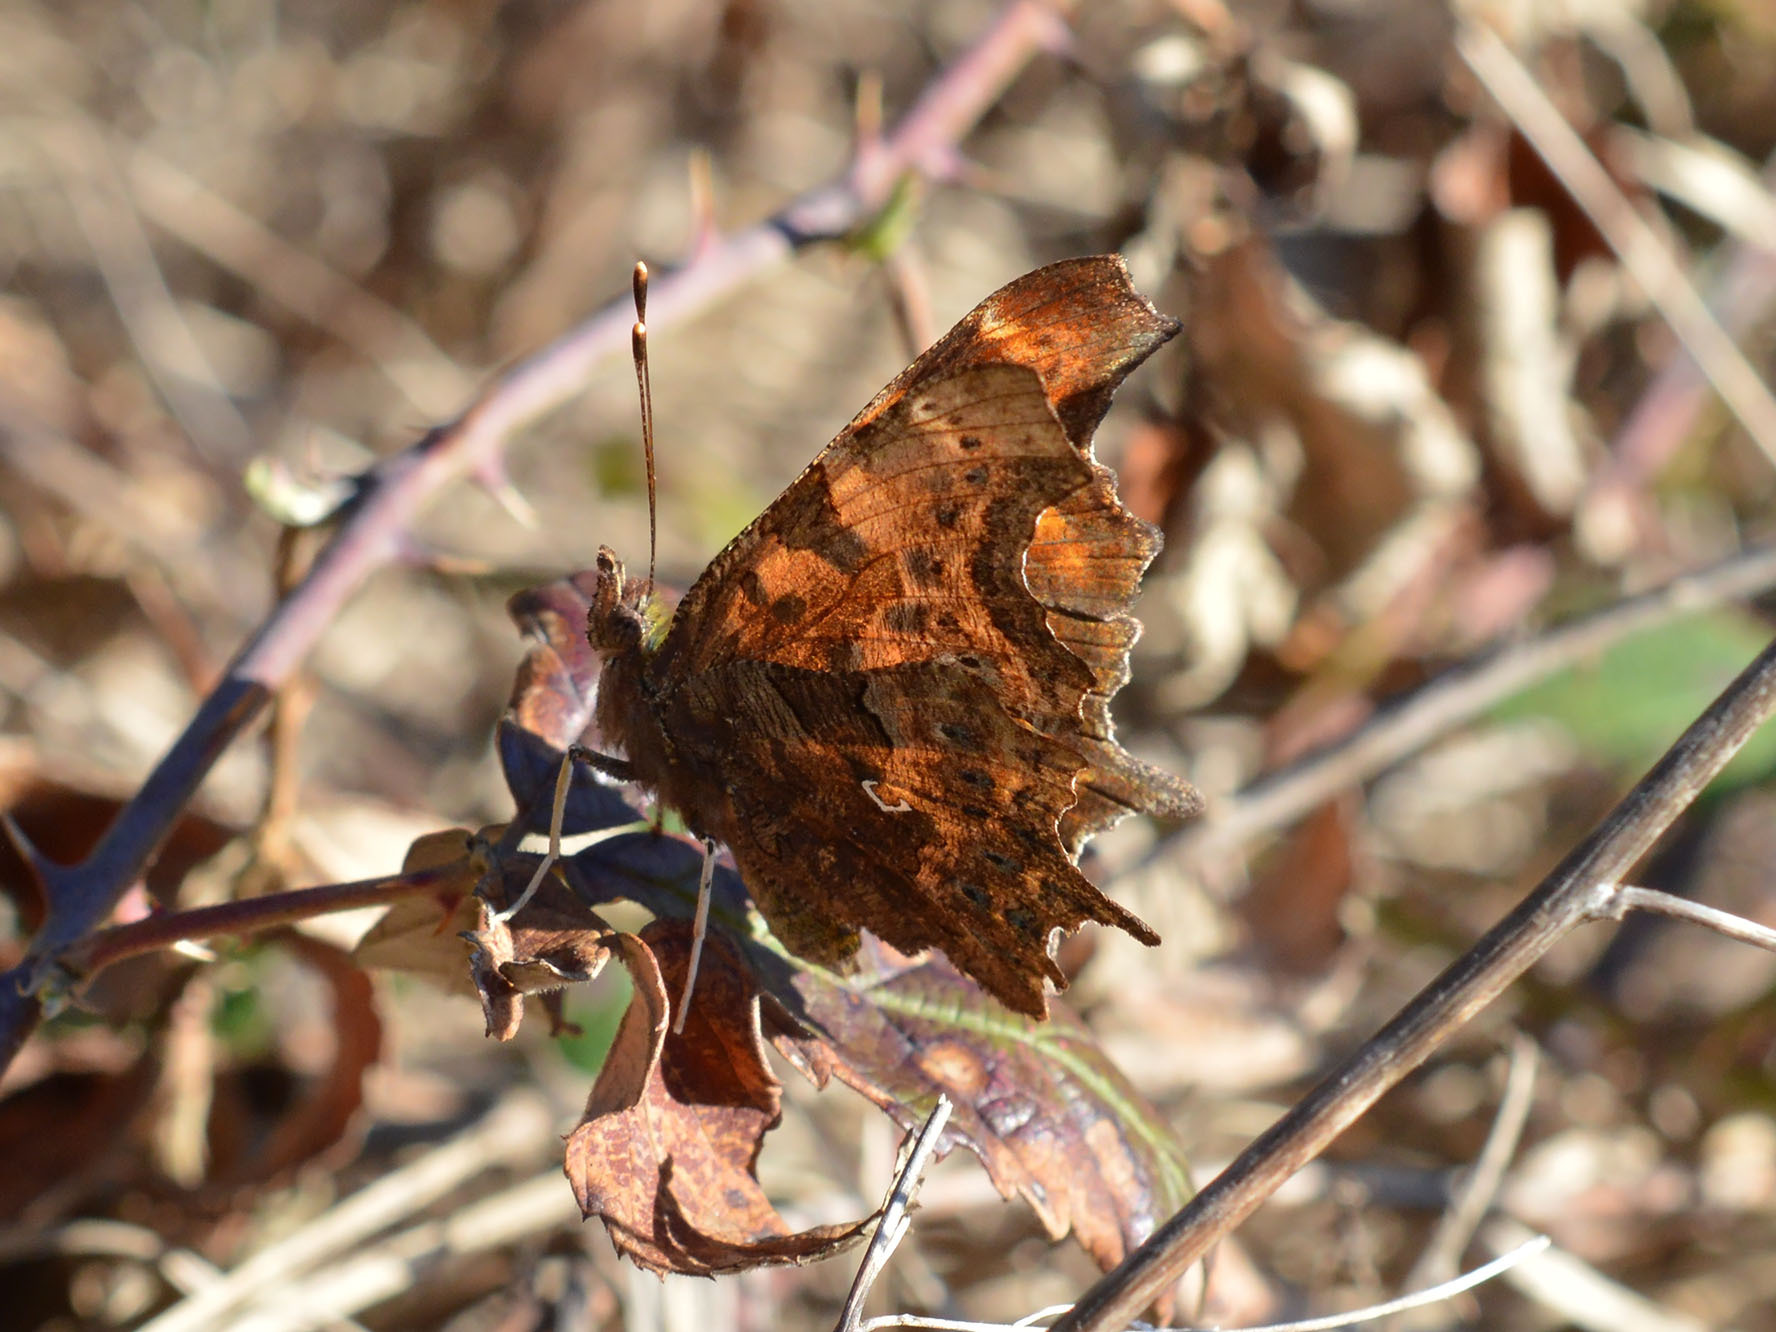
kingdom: Animalia
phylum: Arthropoda
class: Insecta
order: Lepidoptera
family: Nymphalidae
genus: Polygonia
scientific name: Polygonia c-album
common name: Comma
